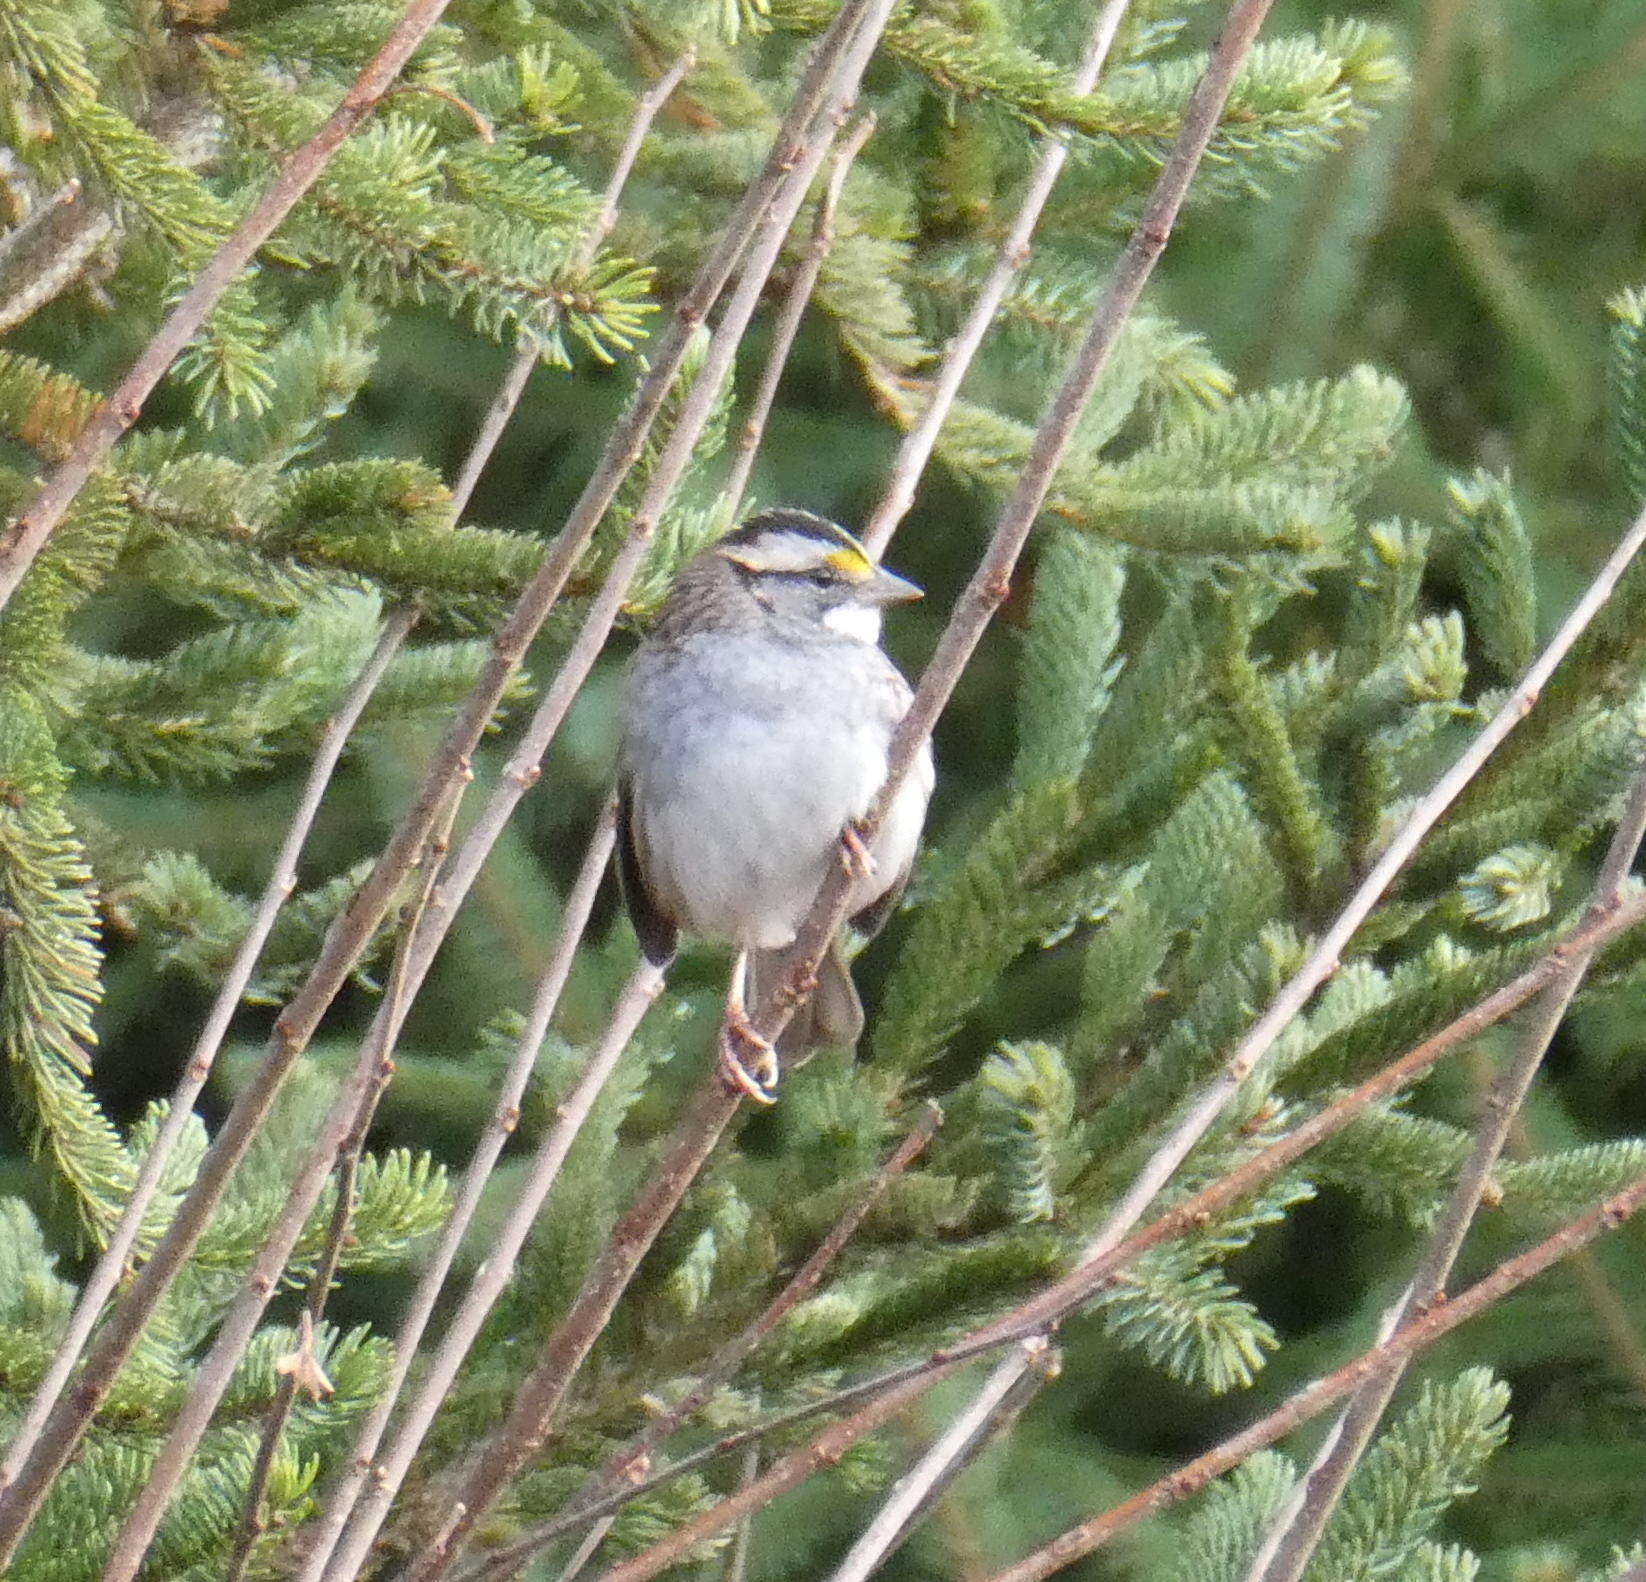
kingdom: Animalia
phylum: Chordata
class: Aves
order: Passeriformes
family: Passerellidae
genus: Zonotrichia
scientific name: Zonotrichia albicollis
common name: White-throated sparrow
